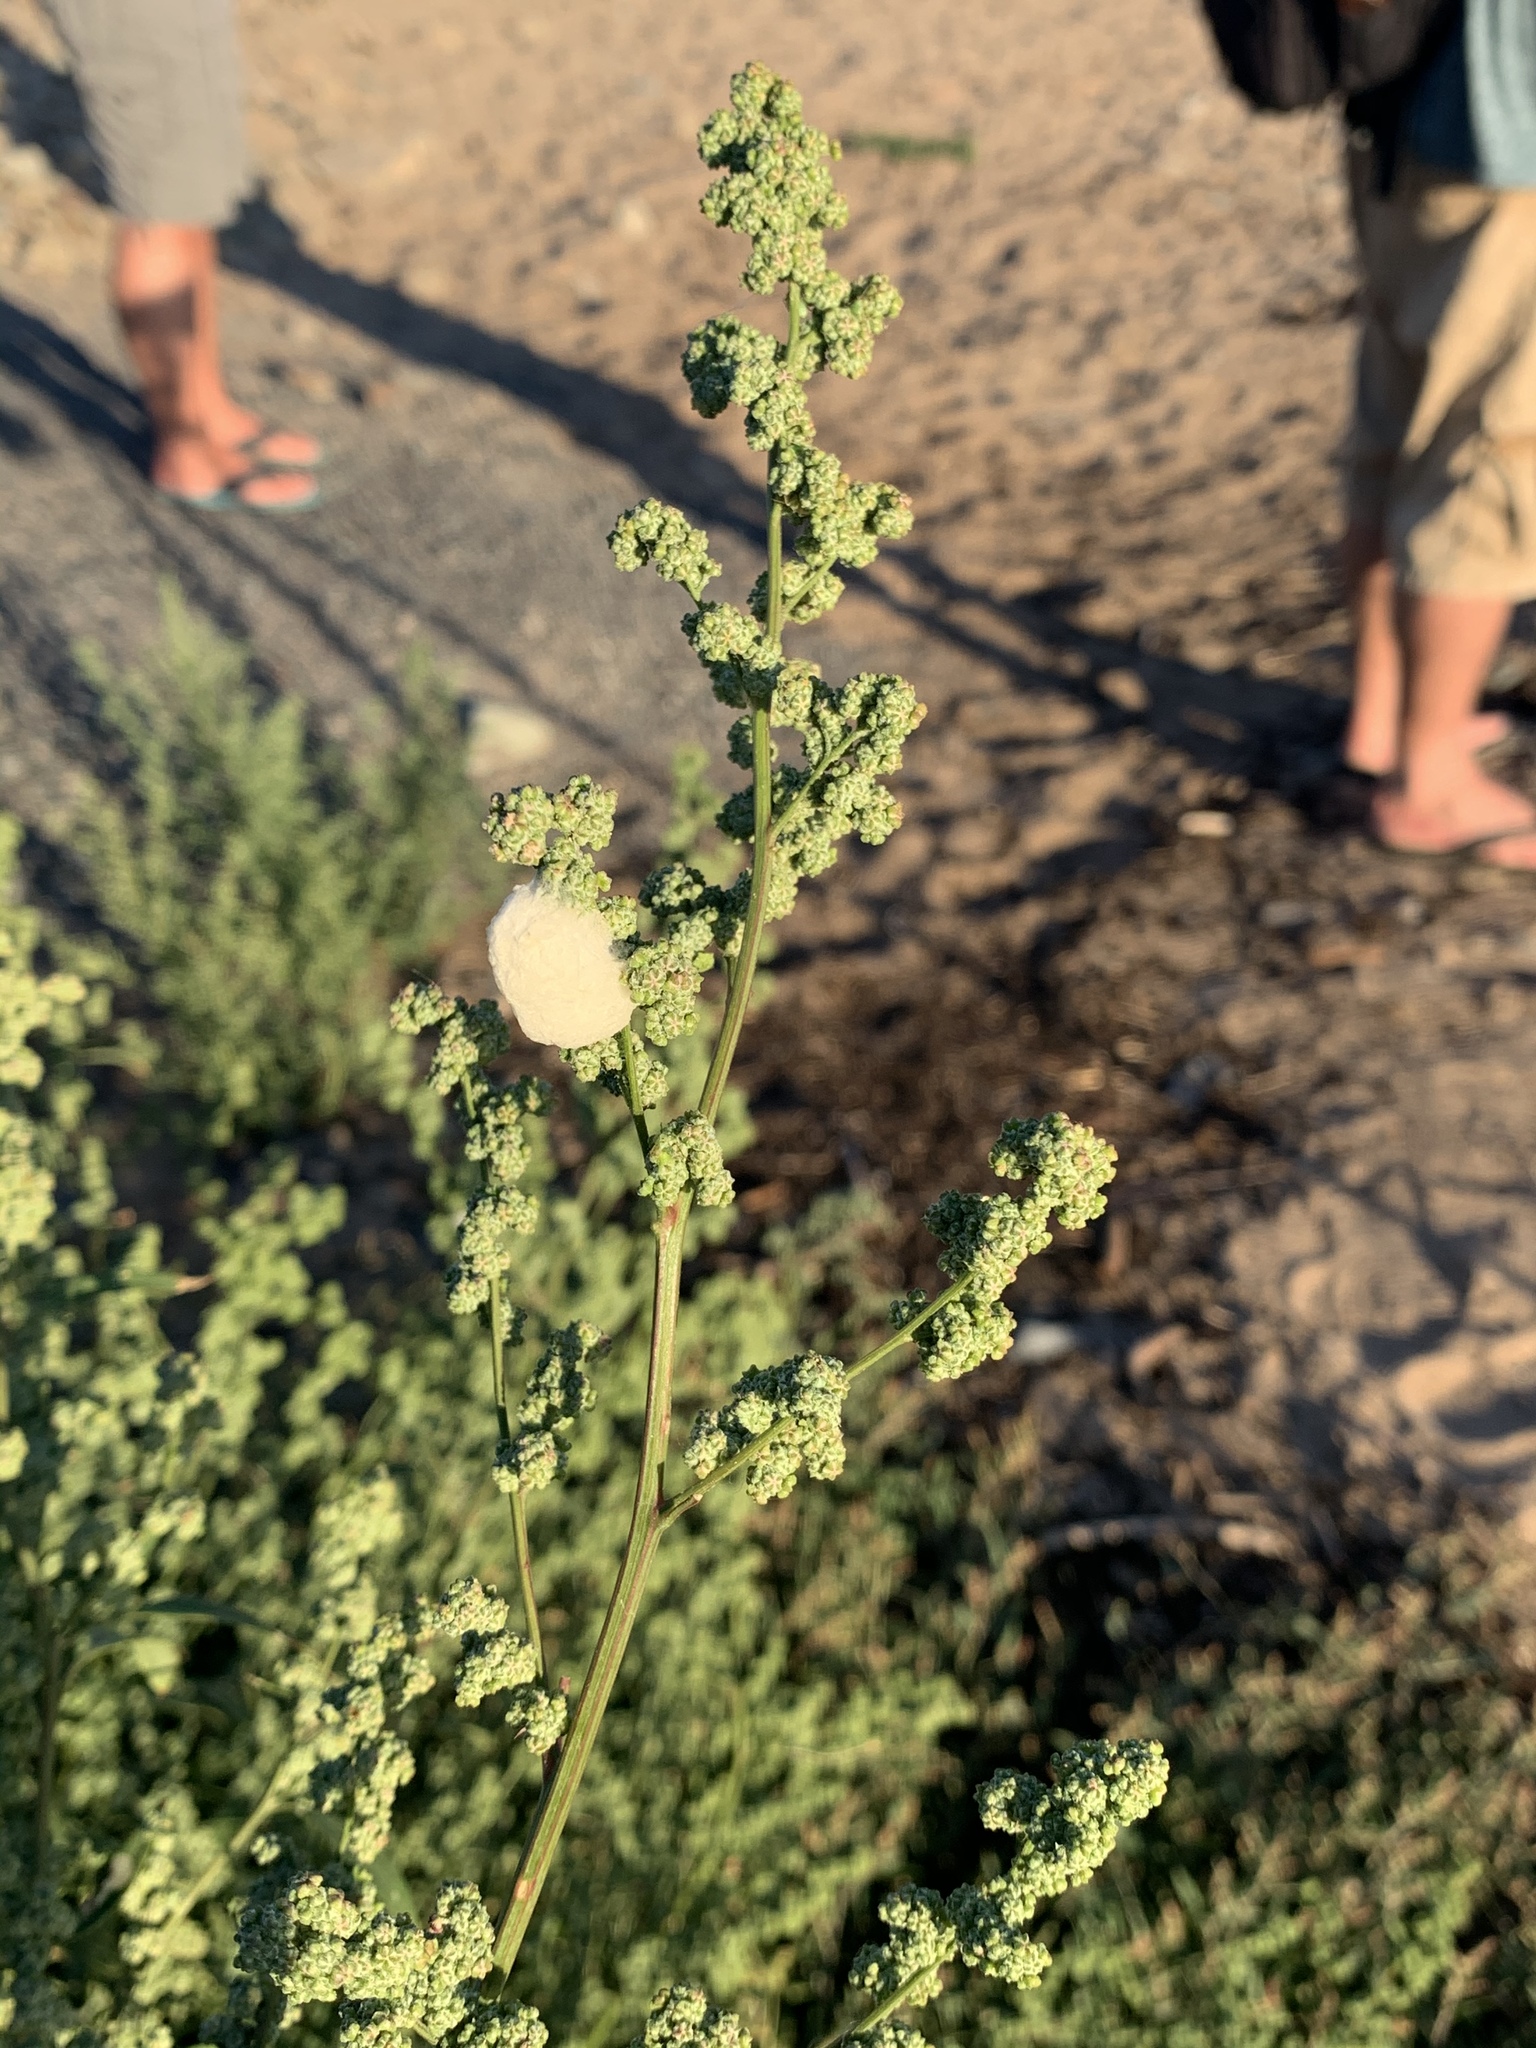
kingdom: Plantae
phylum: Tracheophyta
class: Magnoliopsida
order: Caryophyllales
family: Amaranthaceae
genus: Chenopodium
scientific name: Chenopodium album
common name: Fat-hen
